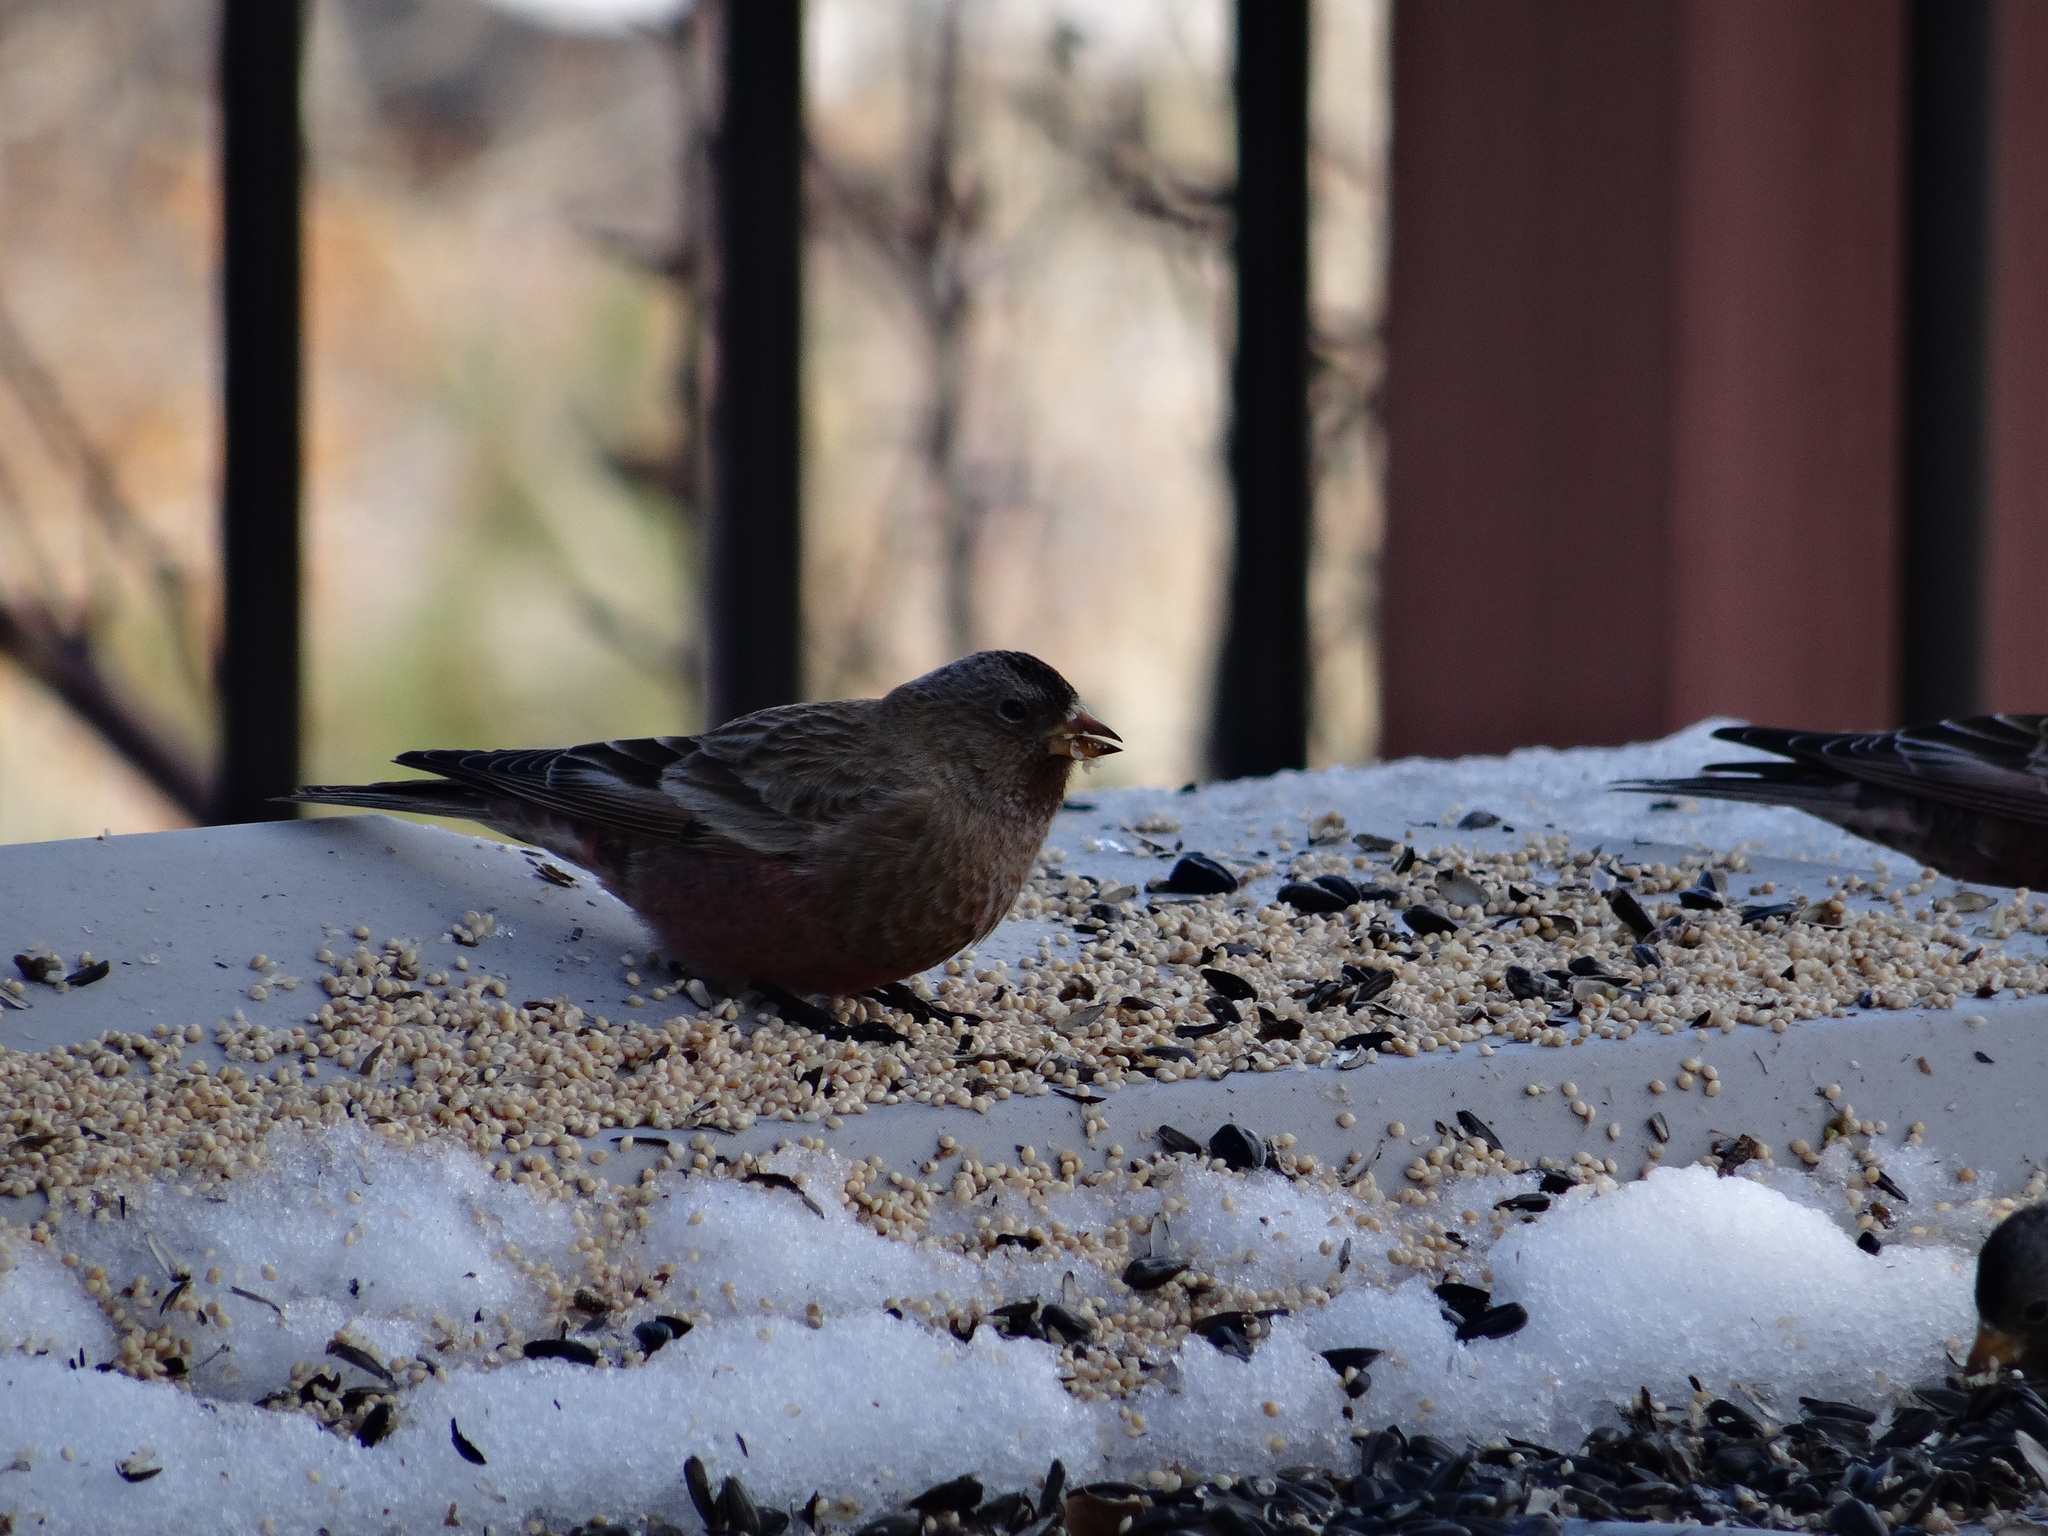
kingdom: Animalia
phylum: Chordata
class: Aves
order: Passeriformes
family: Fringillidae
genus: Leucosticte
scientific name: Leucosticte australis
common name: Brown-capped rosy-finch
